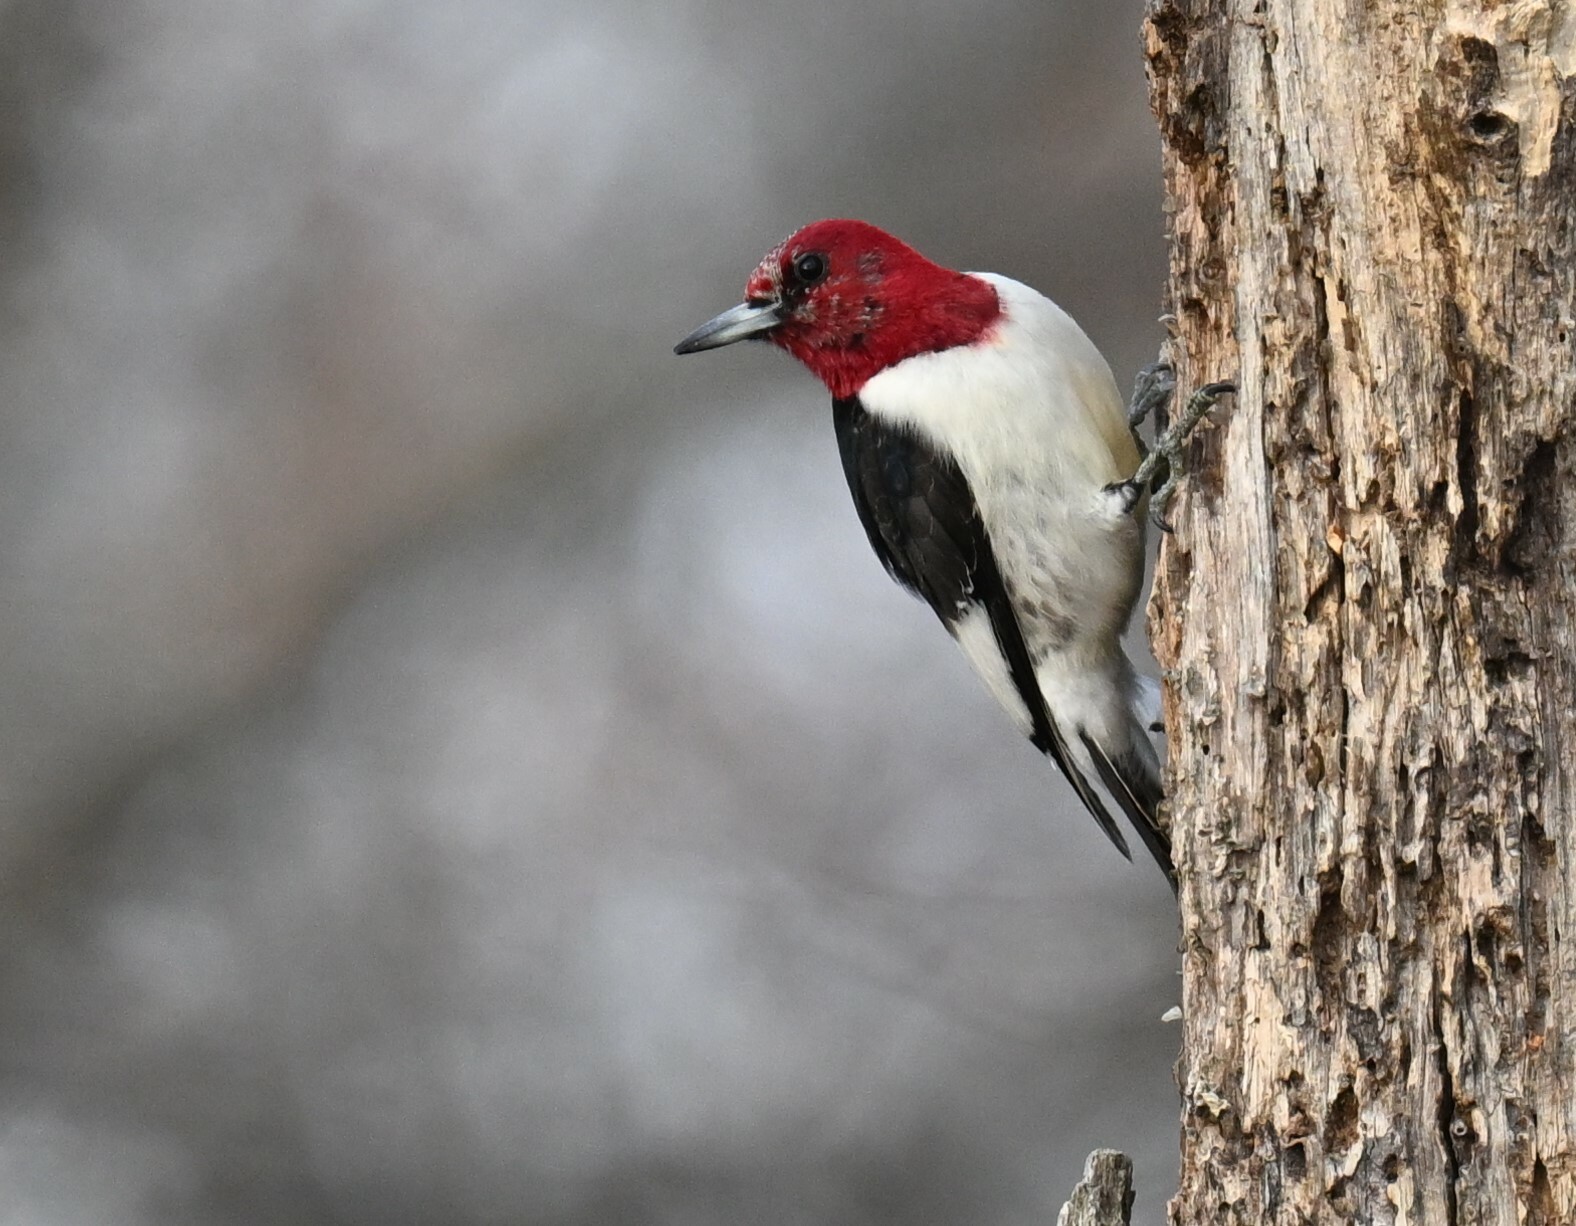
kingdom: Animalia
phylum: Chordata
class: Aves
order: Piciformes
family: Picidae
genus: Melanerpes
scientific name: Melanerpes erythrocephalus
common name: Red-headed woodpecker
